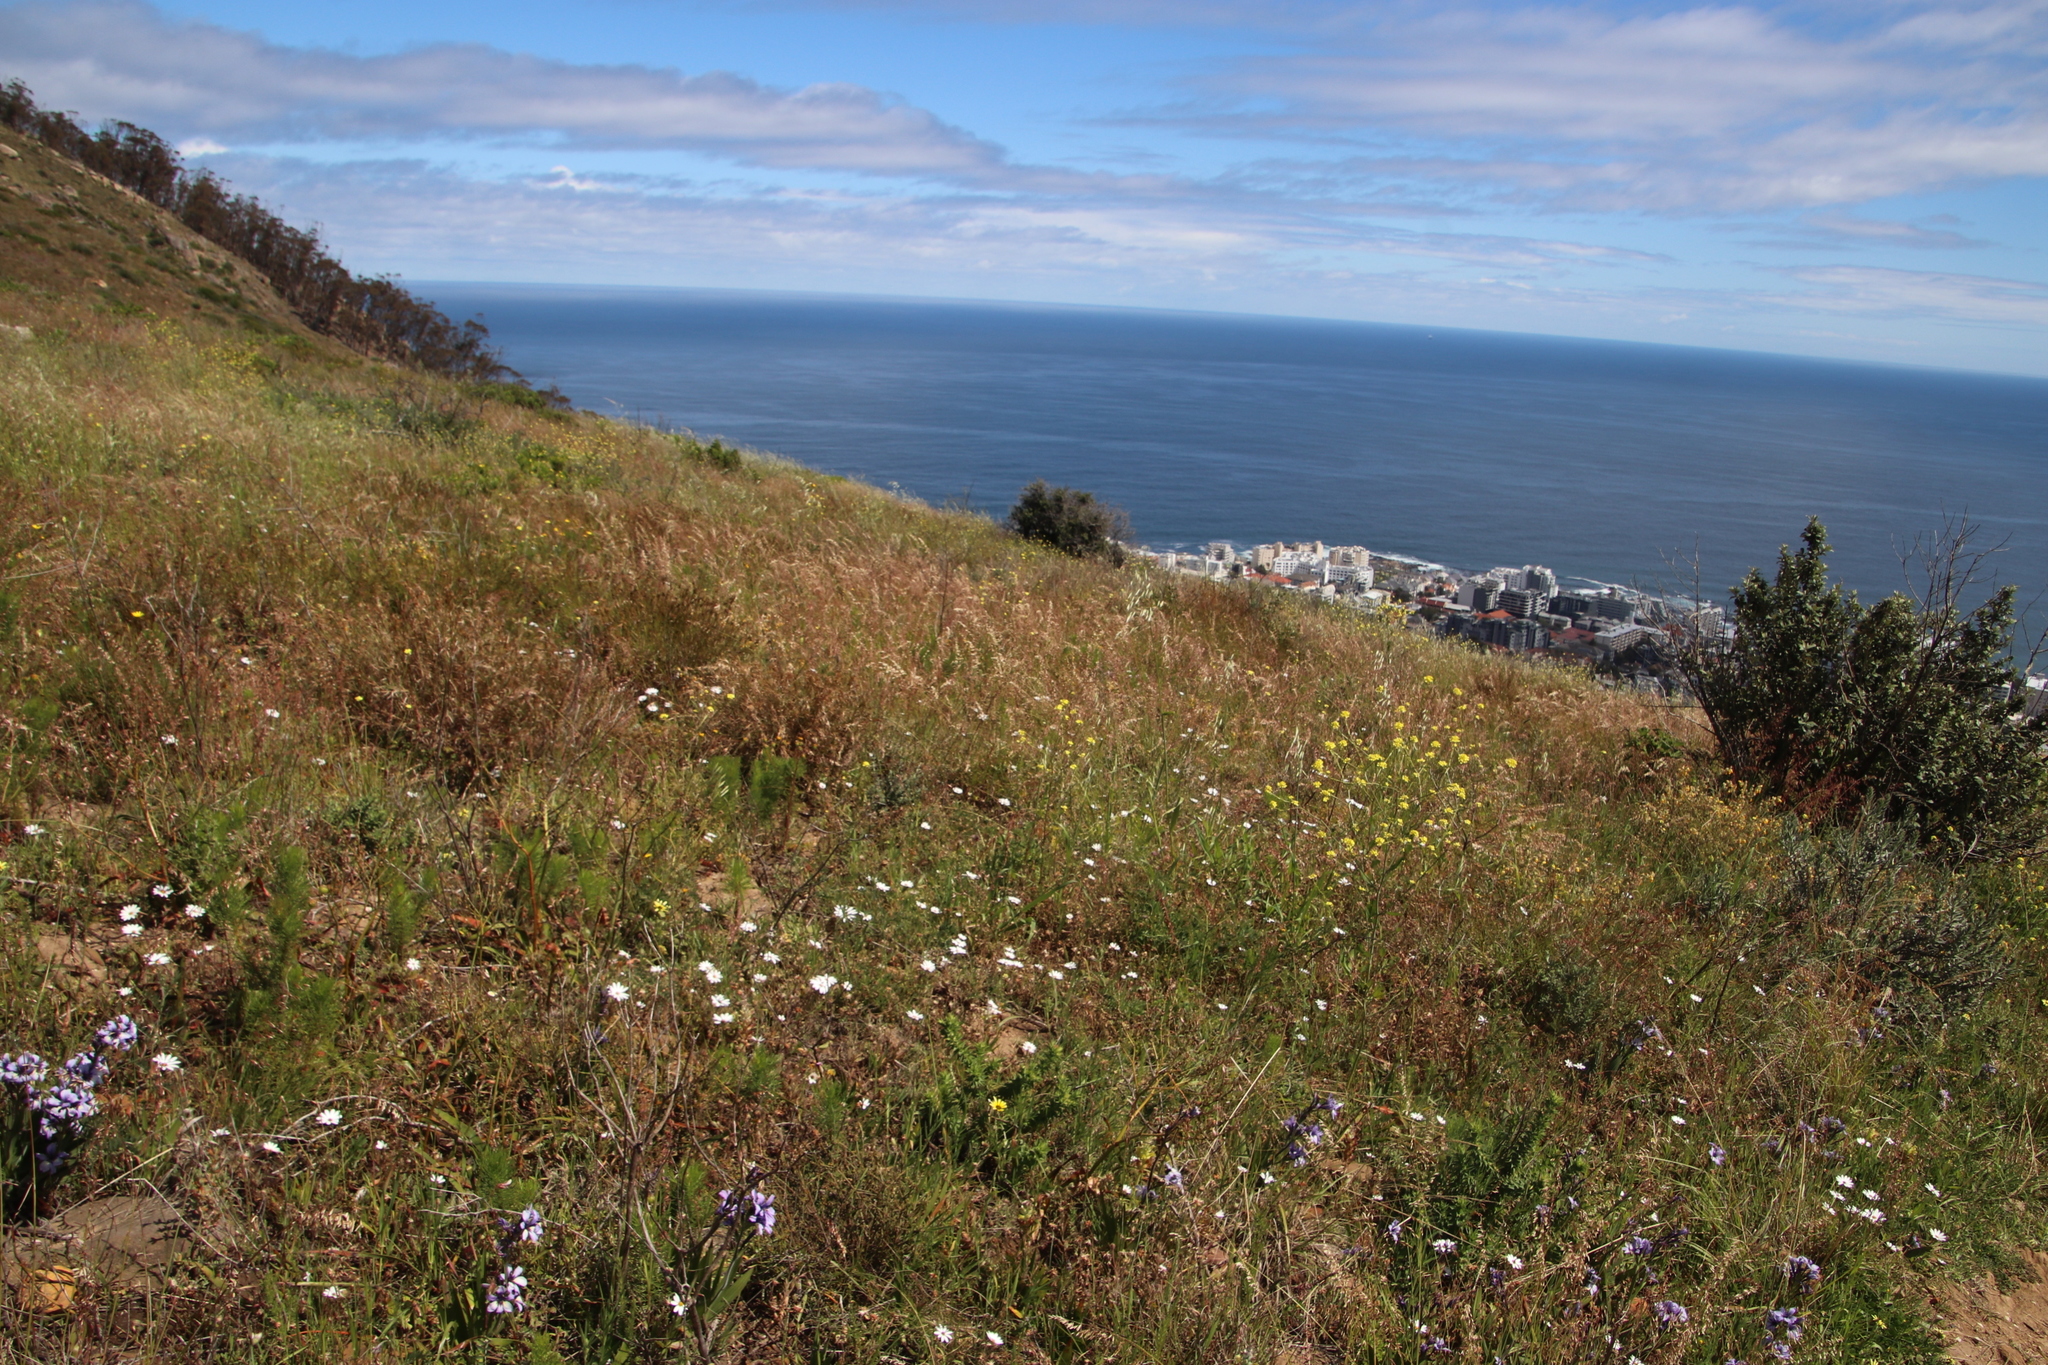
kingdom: Plantae
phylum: Tracheophyta
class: Liliopsida
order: Poales
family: Poaceae
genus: Ehrharta
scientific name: Ehrharta calycina
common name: Perennial veldtgrass
